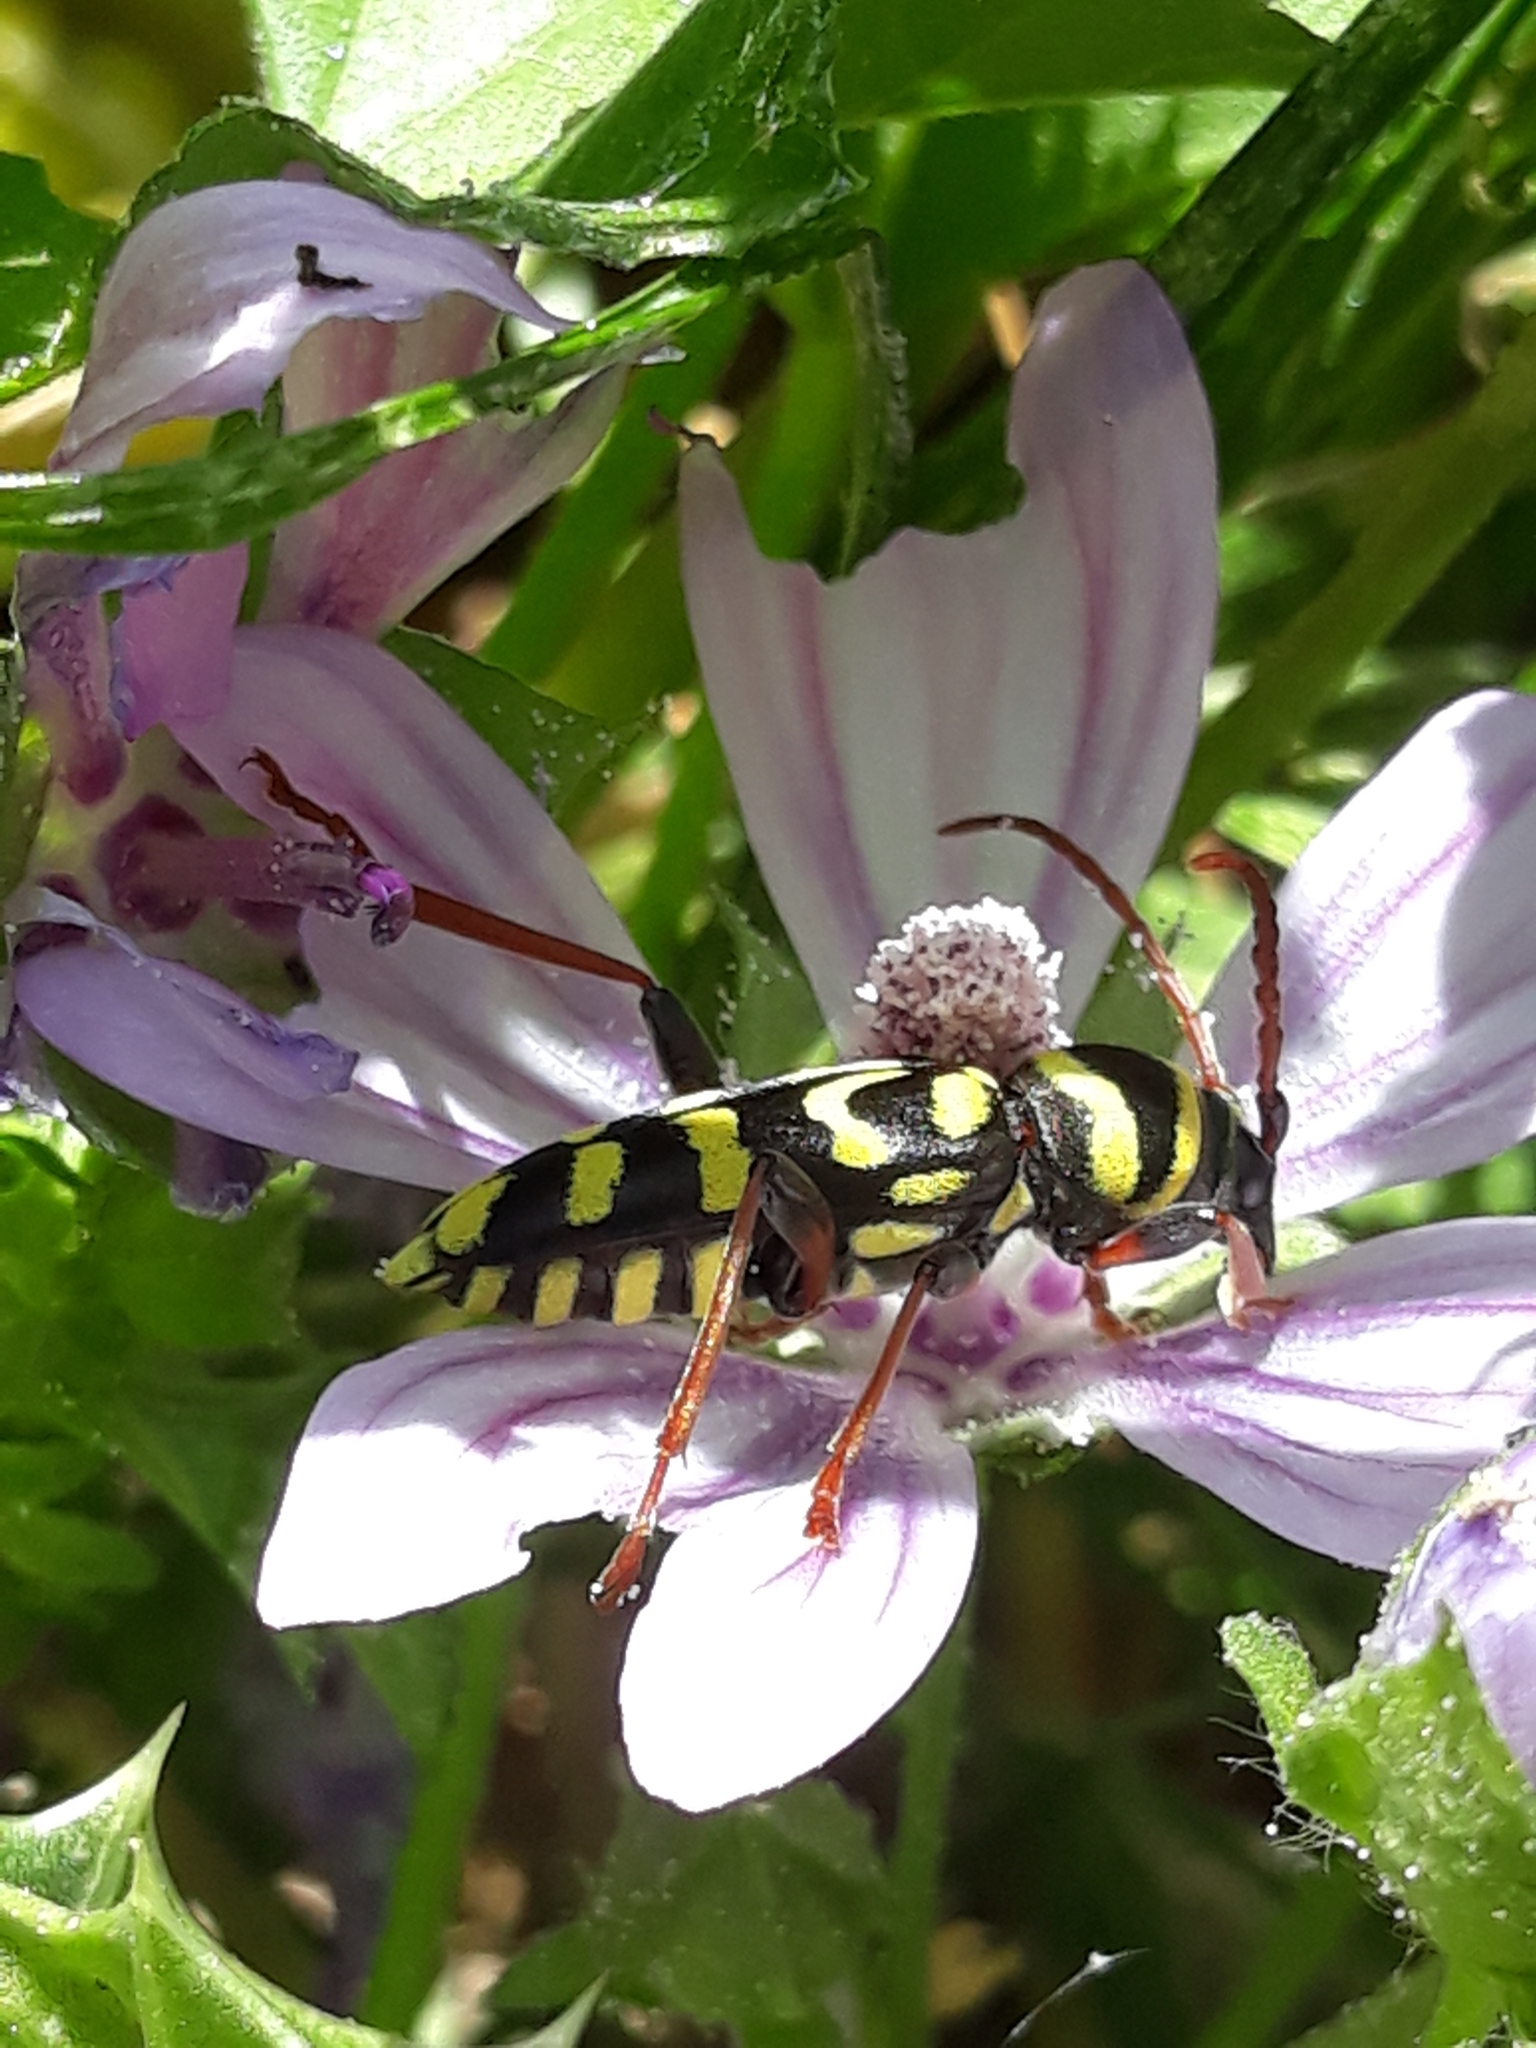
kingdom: Animalia
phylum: Arthropoda
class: Insecta
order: Coleoptera
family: Cerambycidae
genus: Neoplagionotus
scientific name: Neoplagionotus scalaris
